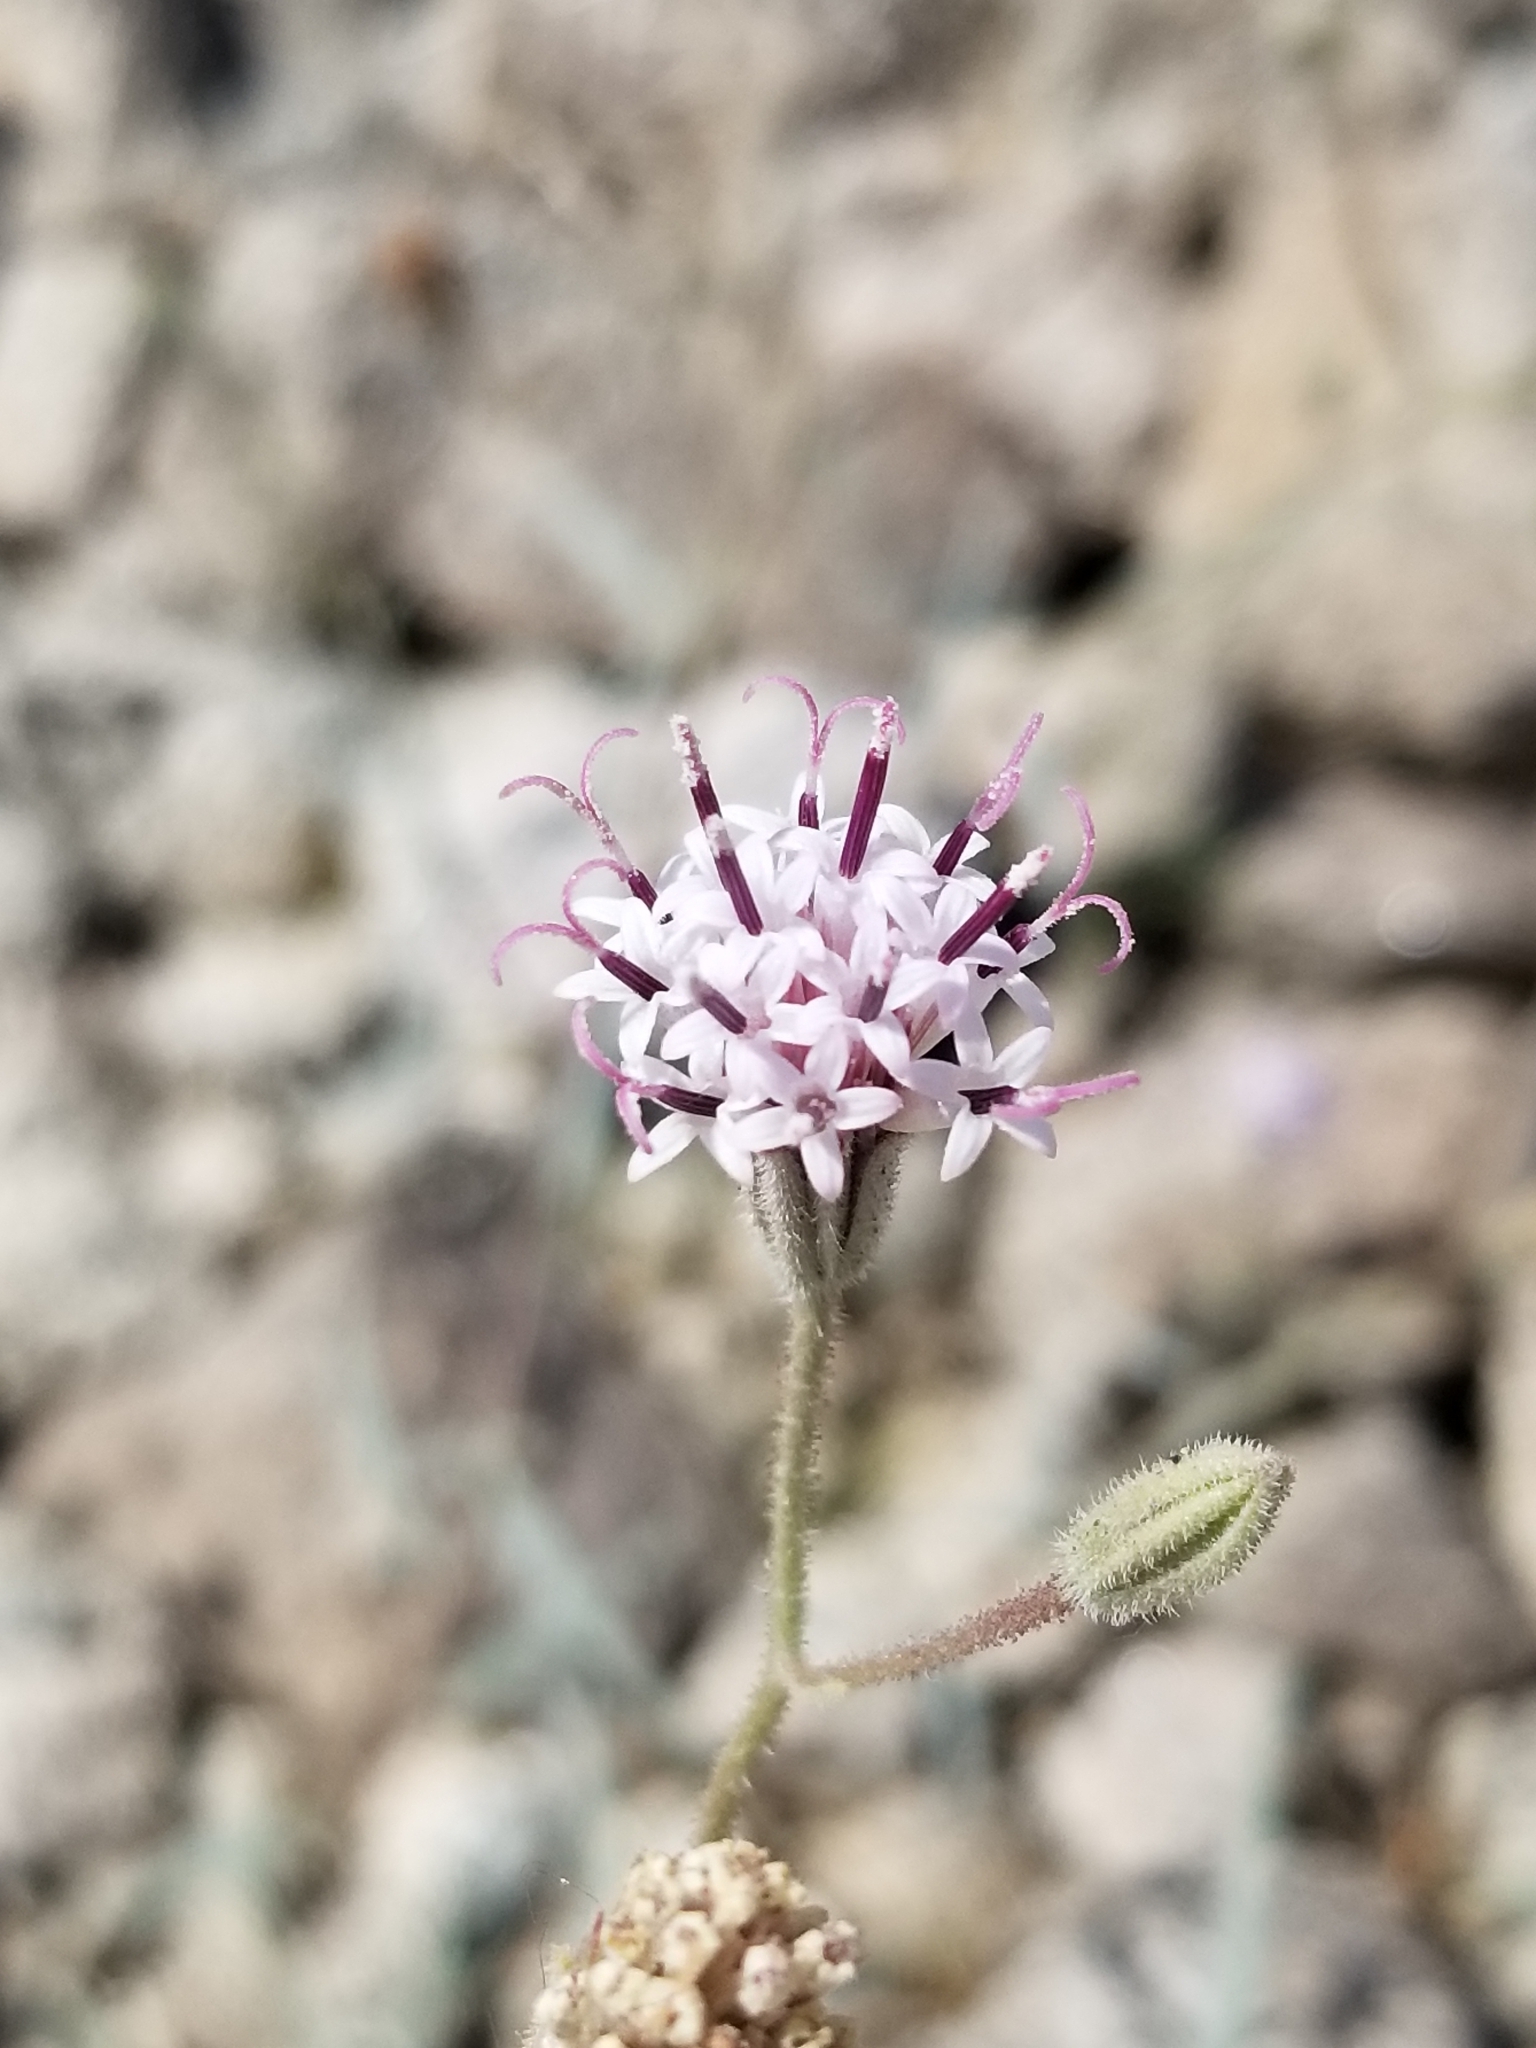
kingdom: Plantae
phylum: Tracheophyta
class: Magnoliopsida
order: Asterales
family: Asteraceae
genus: Palafoxia
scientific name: Palafoxia arida
